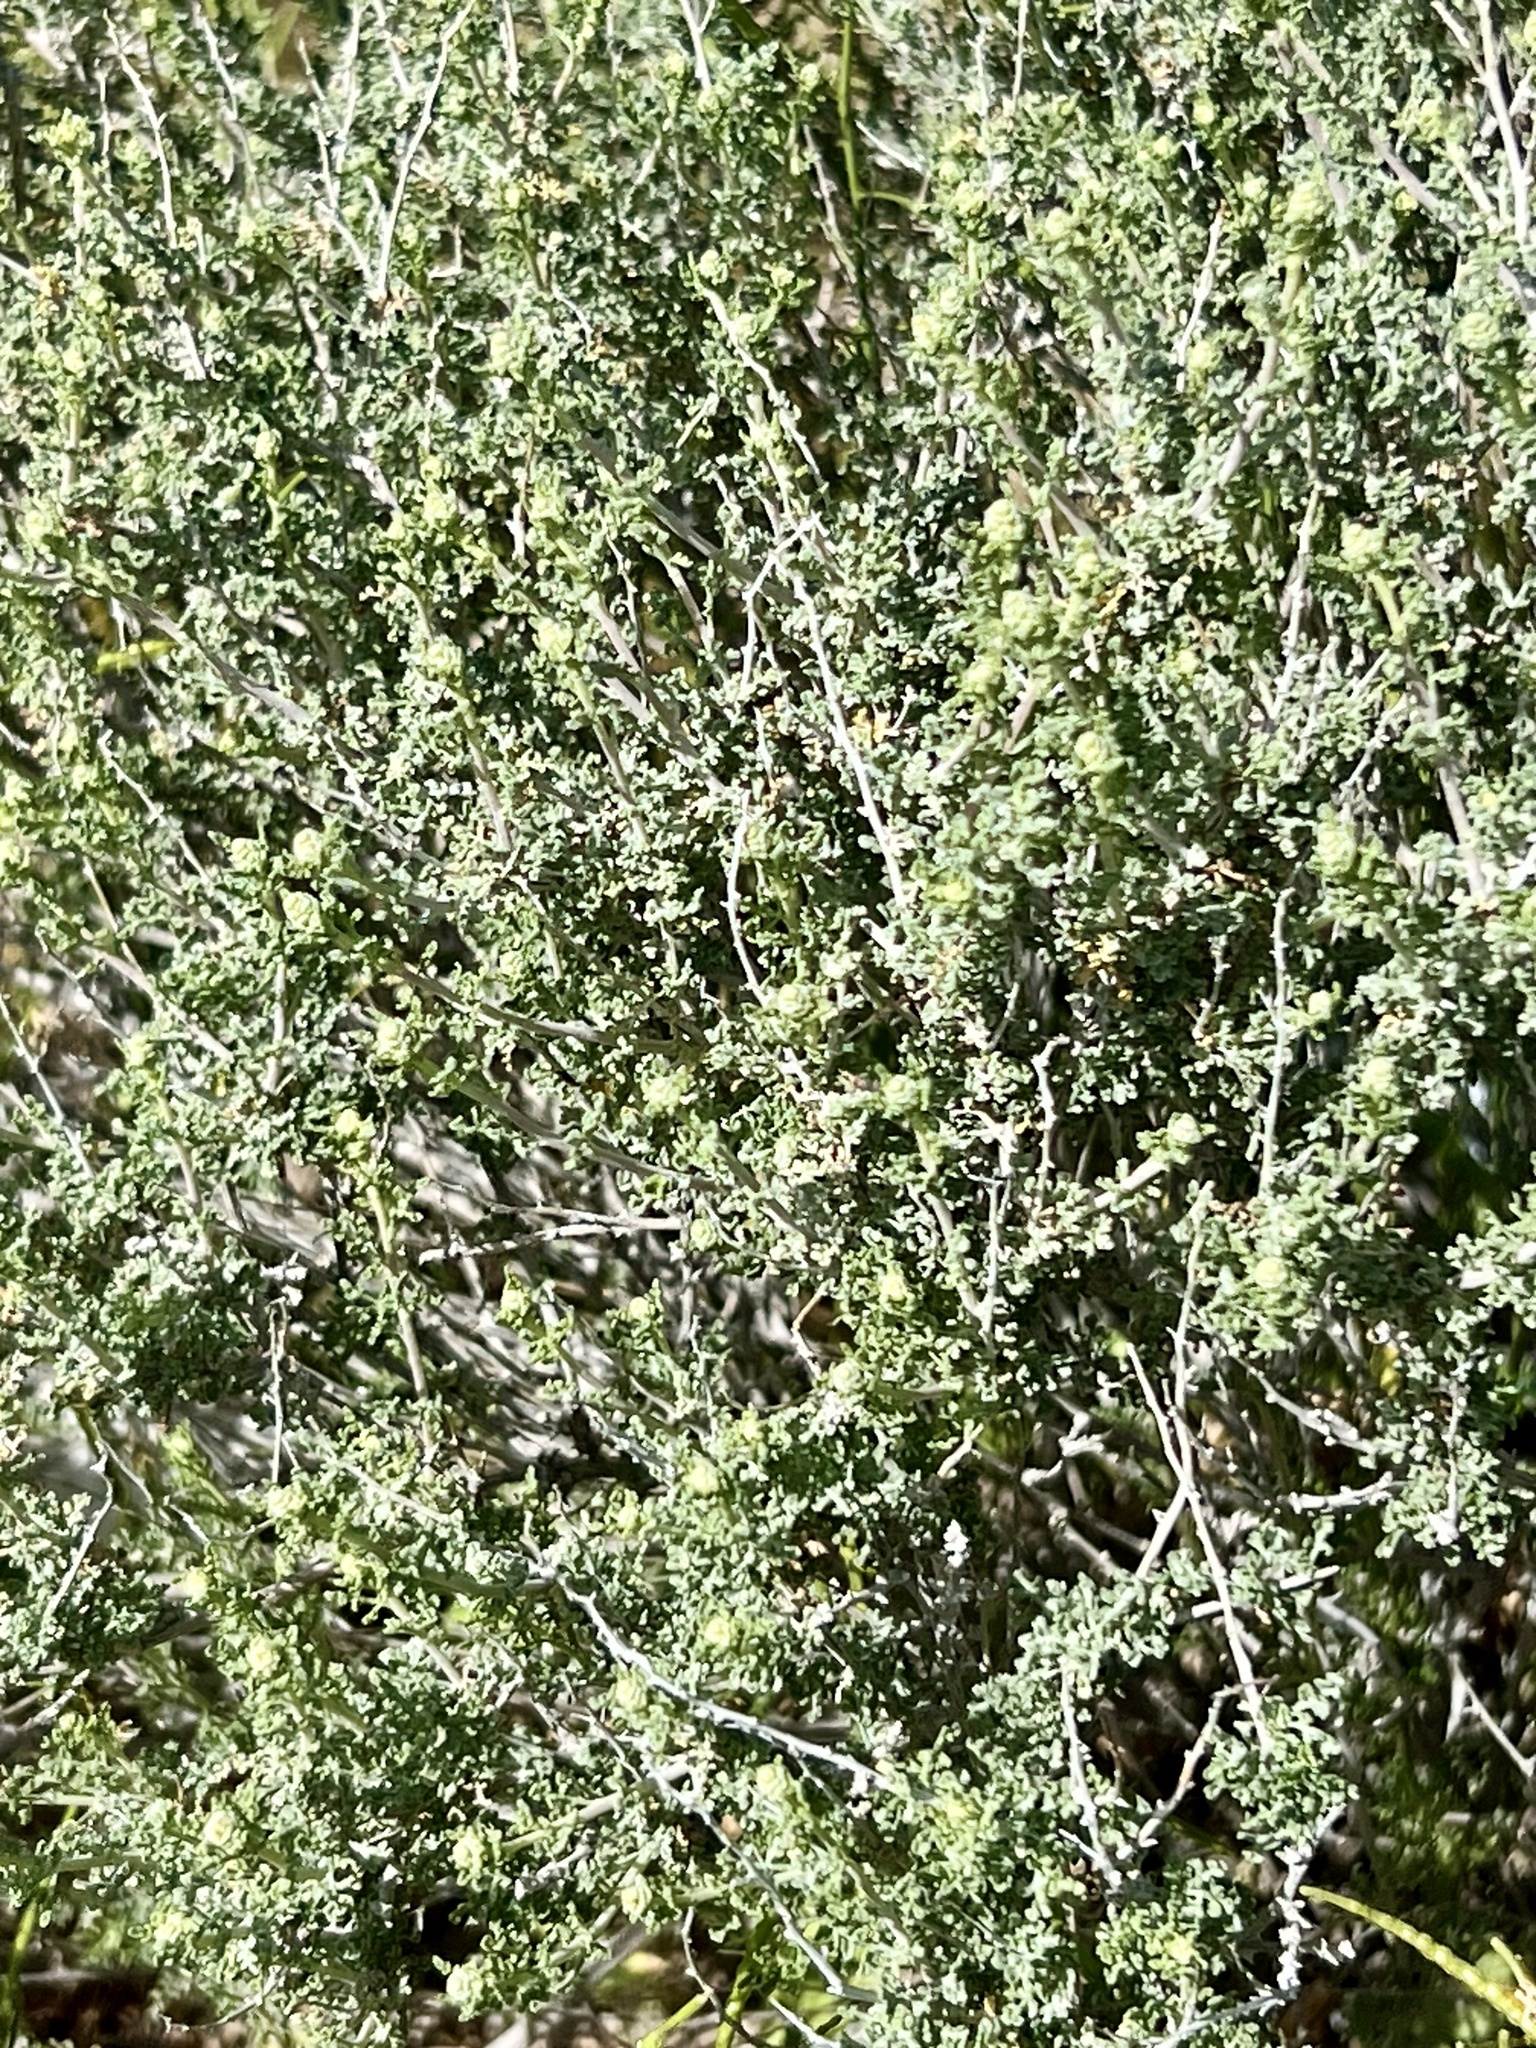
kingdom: Plantae
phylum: Tracheophyta
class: Magnoliopsida
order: Asterales
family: Asteraceae
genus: Ambrosia
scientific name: Ambrosia dumosa
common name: Bur-sage
